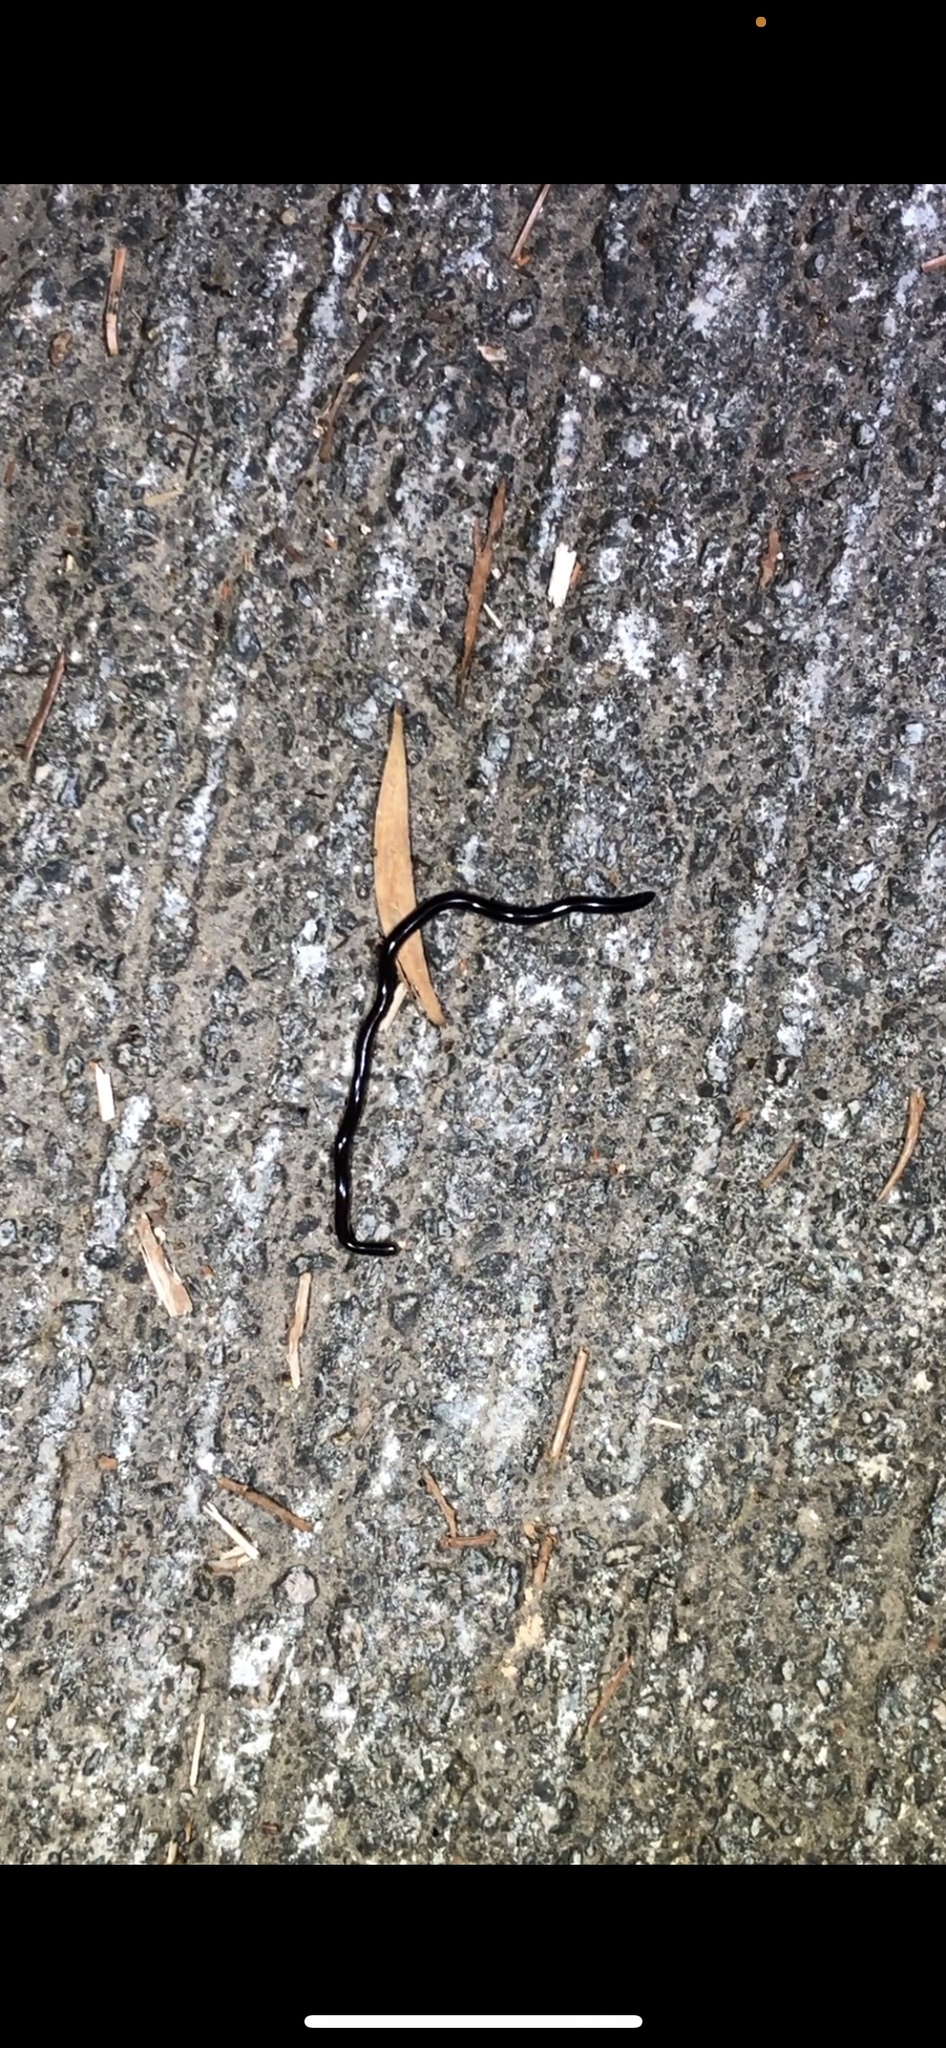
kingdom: Animalia
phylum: Chordata
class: Squamata
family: Typhlopidae
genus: Indotyphlops
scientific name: Indotyphlops braminus
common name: Brahminy blindsnake
